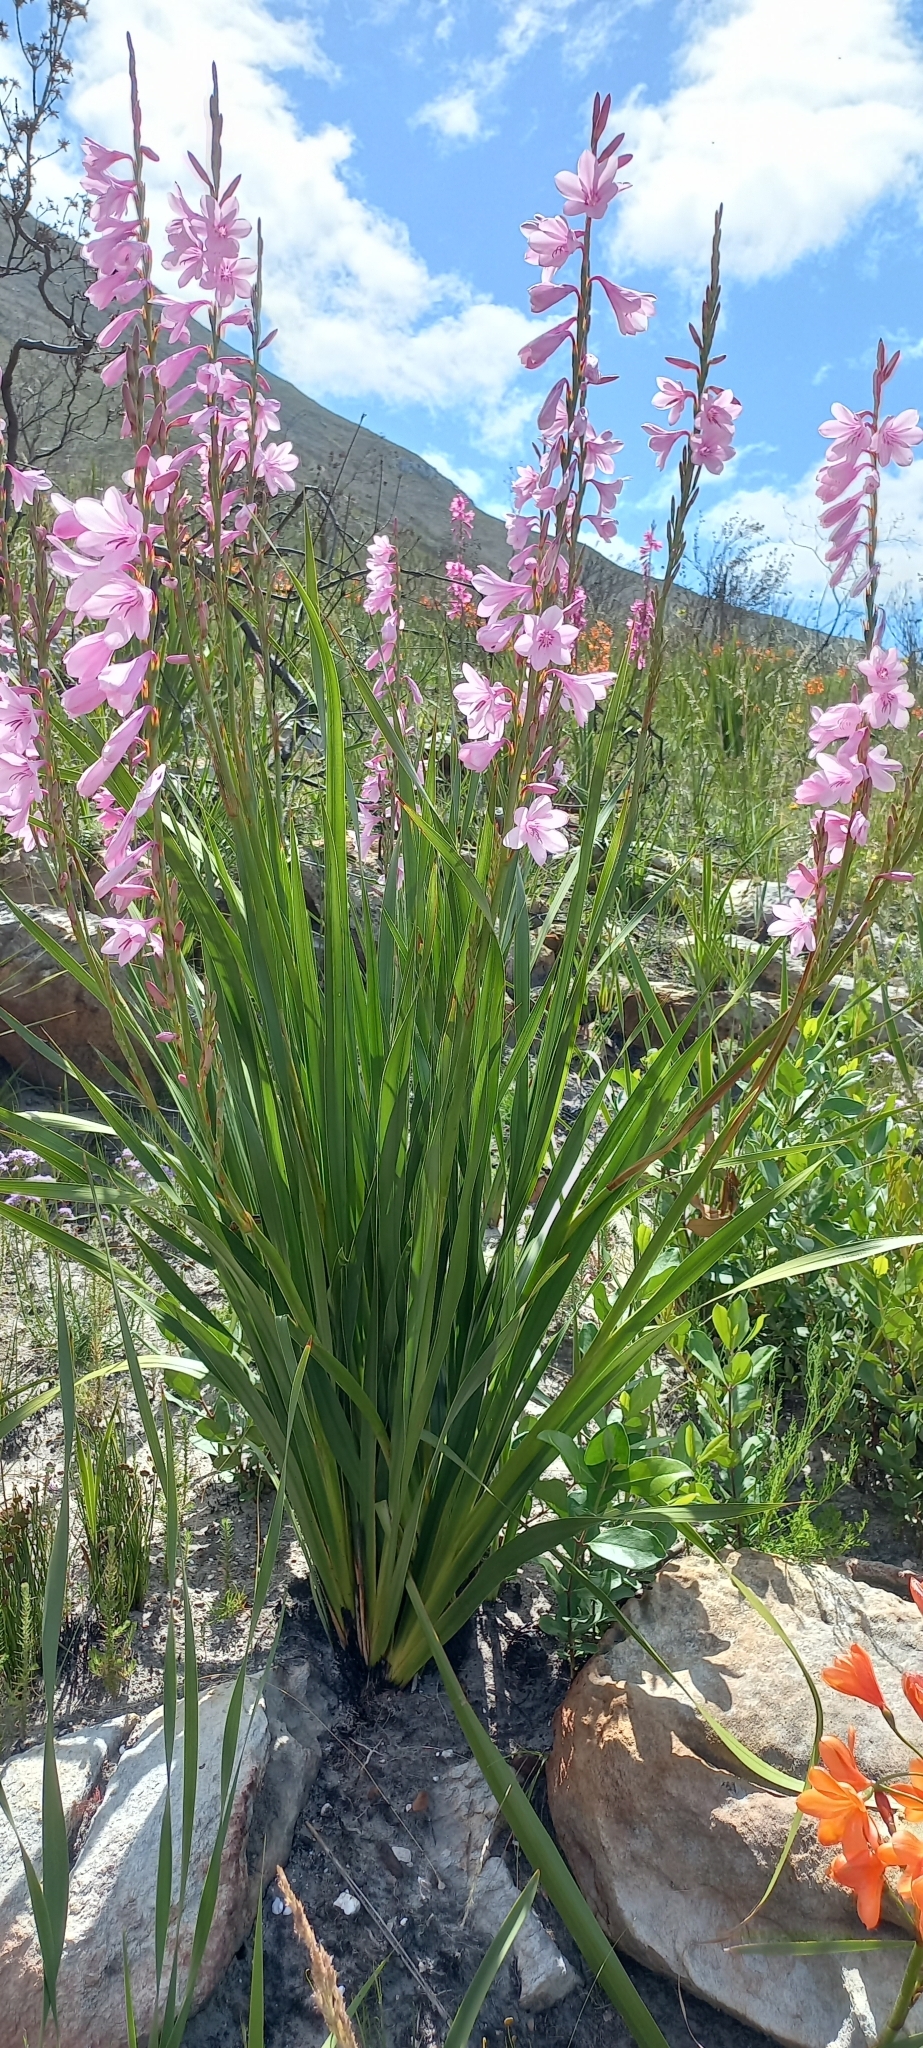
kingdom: Plantae
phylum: Tracheophyta
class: Liliopsida
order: Asparagales
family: Iridaceae
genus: Watsonia
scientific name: Watsonia borbonica
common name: Bugle-lily
